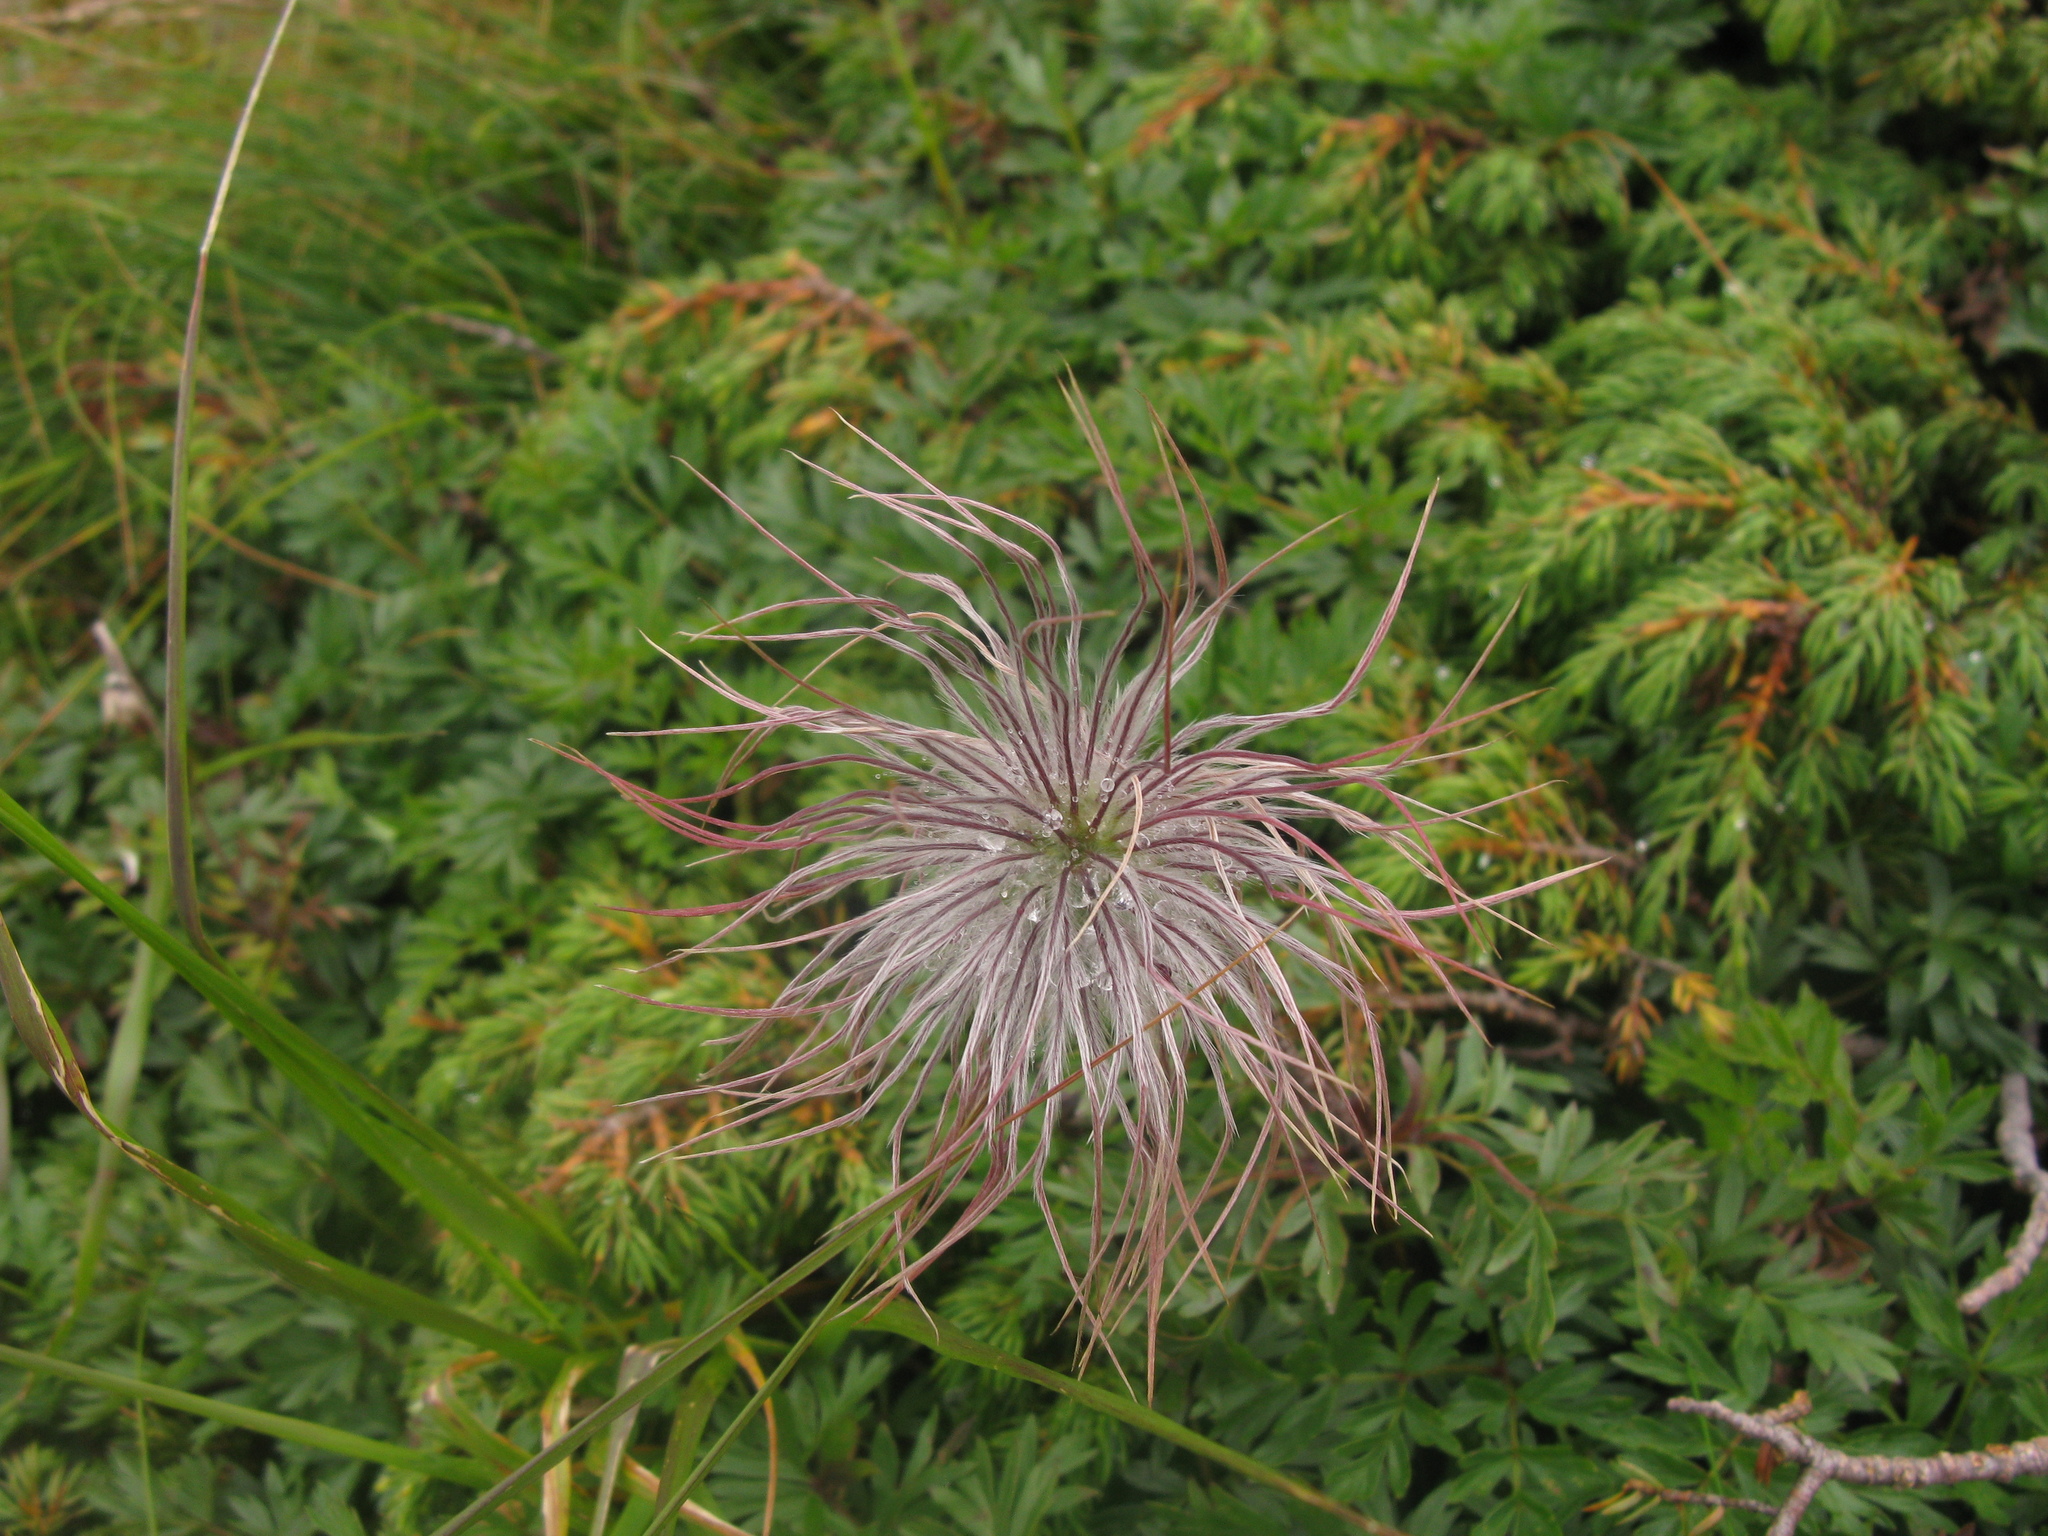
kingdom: Plantae
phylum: Tracheophyta
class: Magnoliopsida
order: Ranunculales
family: Ranunculaceae
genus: Pulsatilla
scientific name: Pulsatilla alpina
